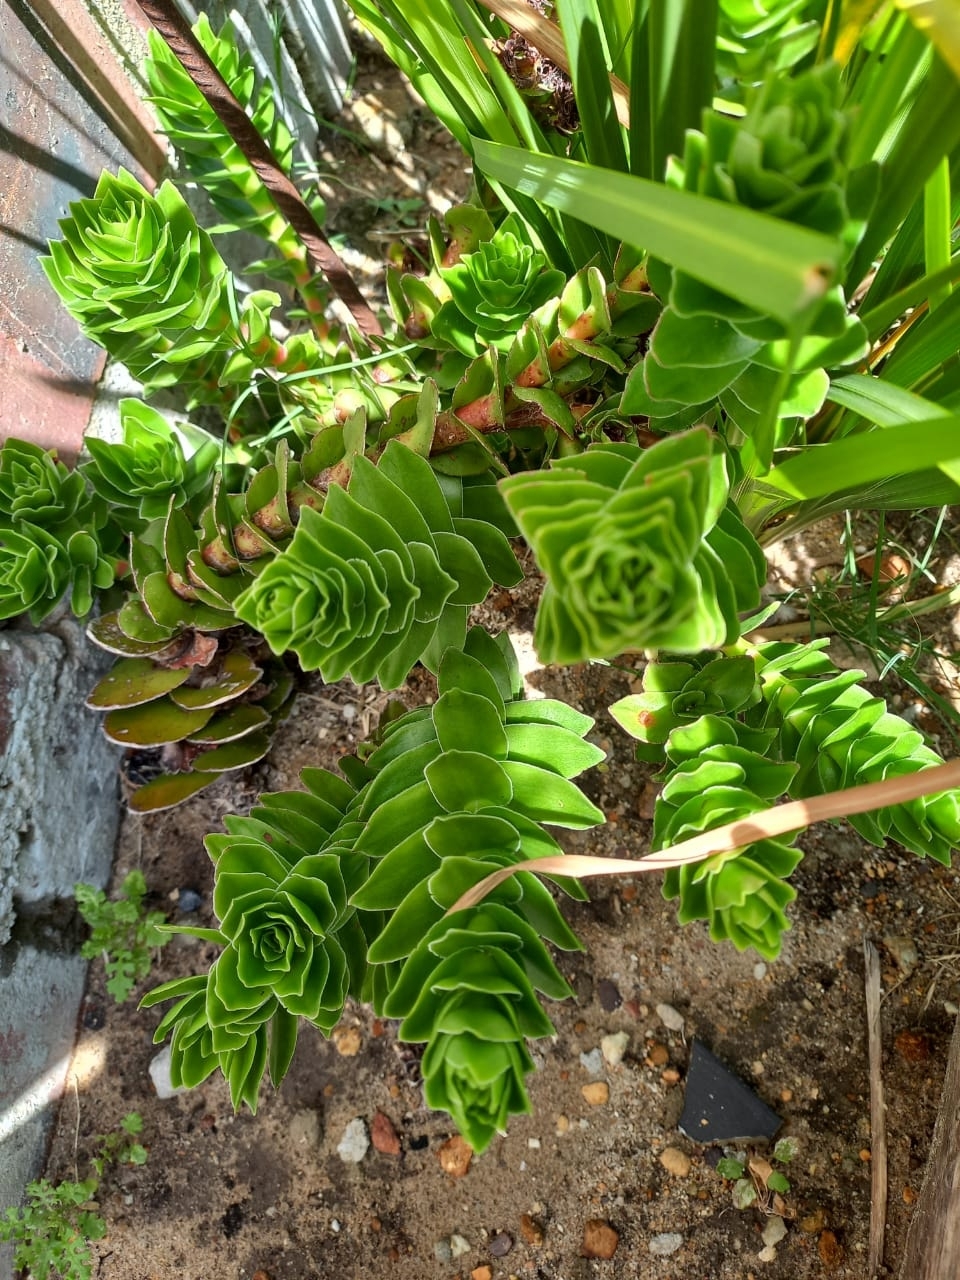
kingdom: Plantae
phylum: Tracheophyta
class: Magnoliopsida
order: Saxifragales
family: Crassulaceae
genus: Crassula
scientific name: Crassula coccinea
